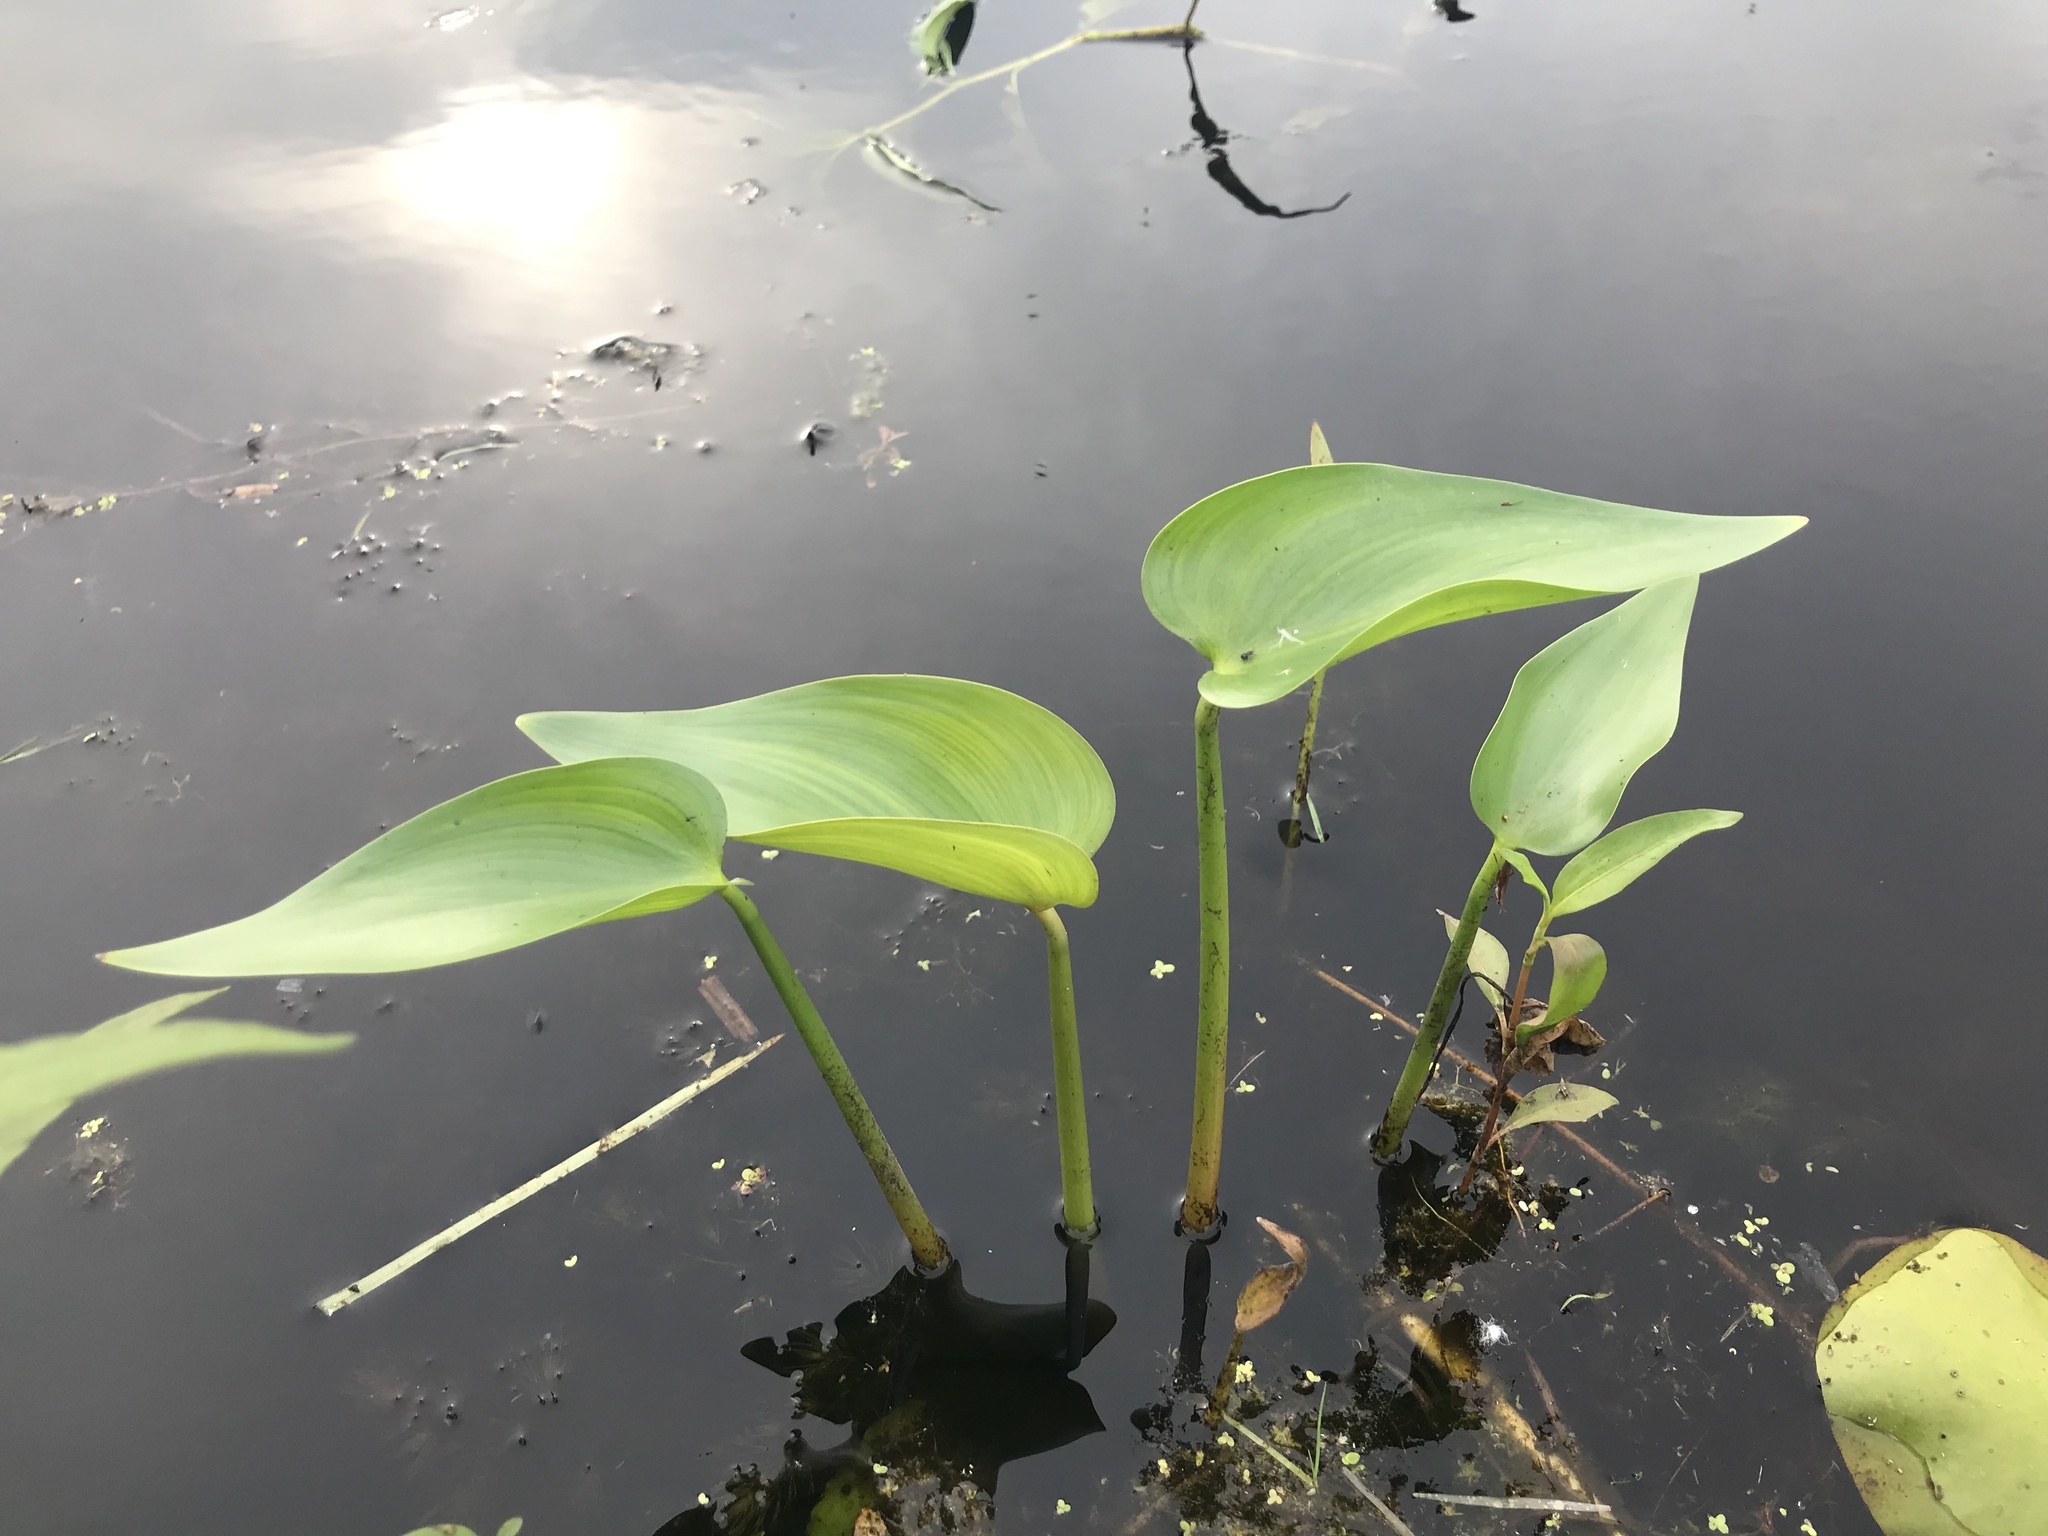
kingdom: Plantae
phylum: Tracheophyta
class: Liliopsida
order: Commelinales
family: Pontederiaceae
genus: Pontederia
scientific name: Pontederia cordata
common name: Pickerelweed
